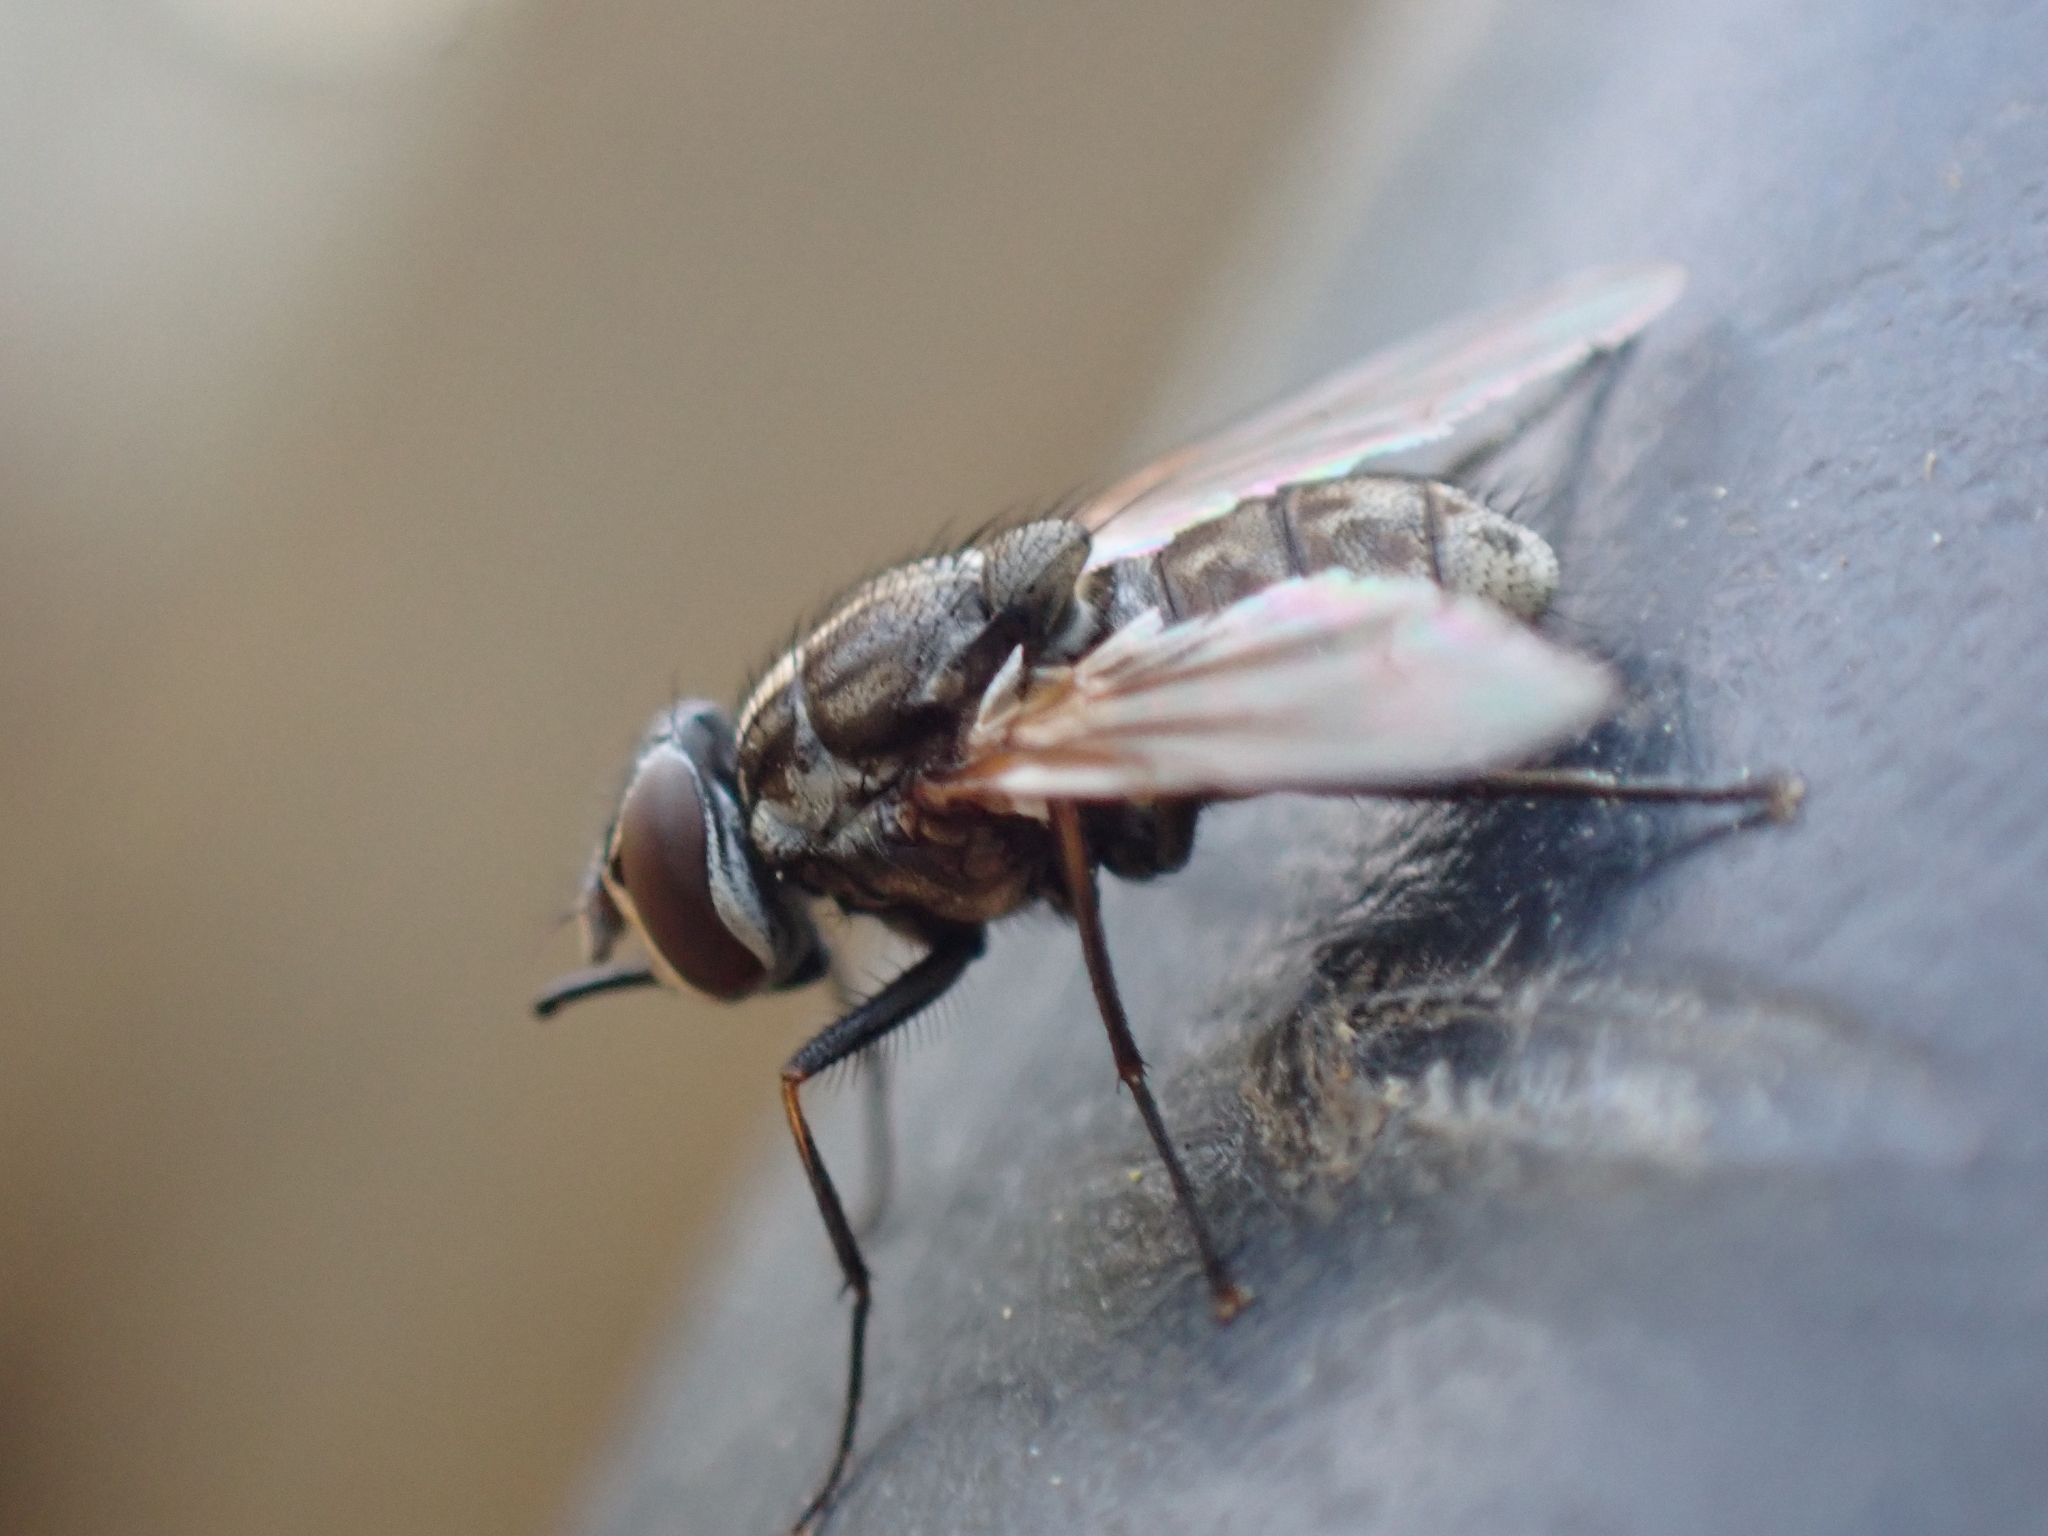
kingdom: Animalia
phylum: Arthropoda
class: Insecta
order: Diptera
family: Muscidae
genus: Stomoxys
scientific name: Stomoxys calcitrans
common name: Stable fly
